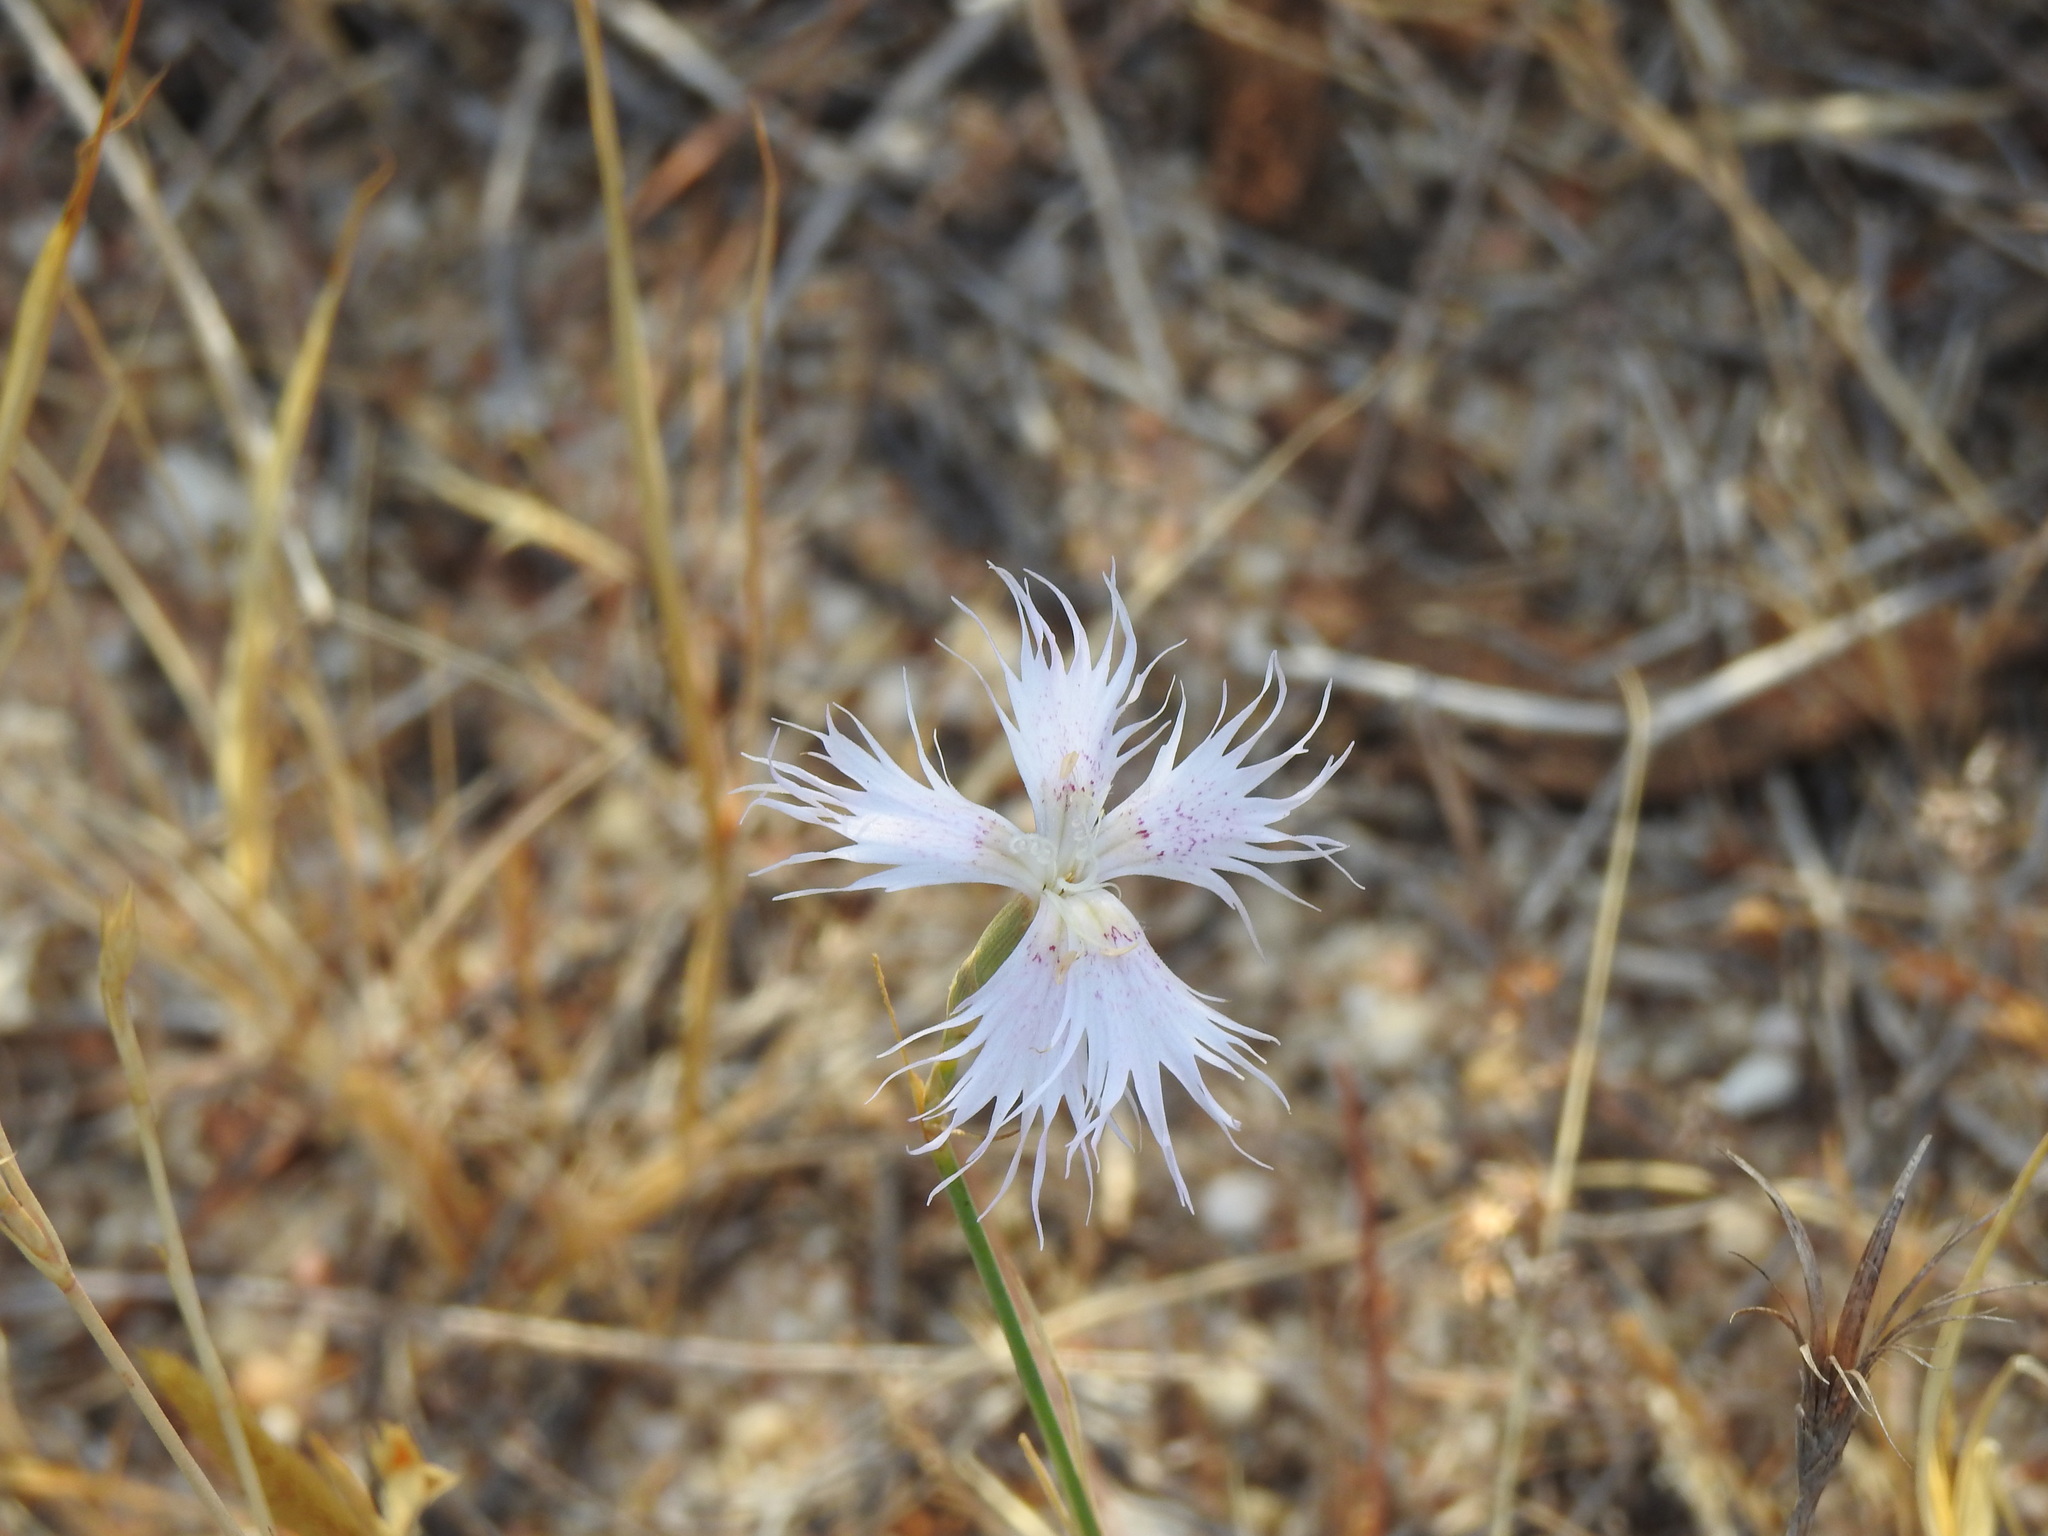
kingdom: Plantae
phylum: Tracheophyta
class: Magnoliopsida
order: Caryophyllales
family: Caryophyllaceae
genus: Dianthus
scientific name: Dianthus broteri
